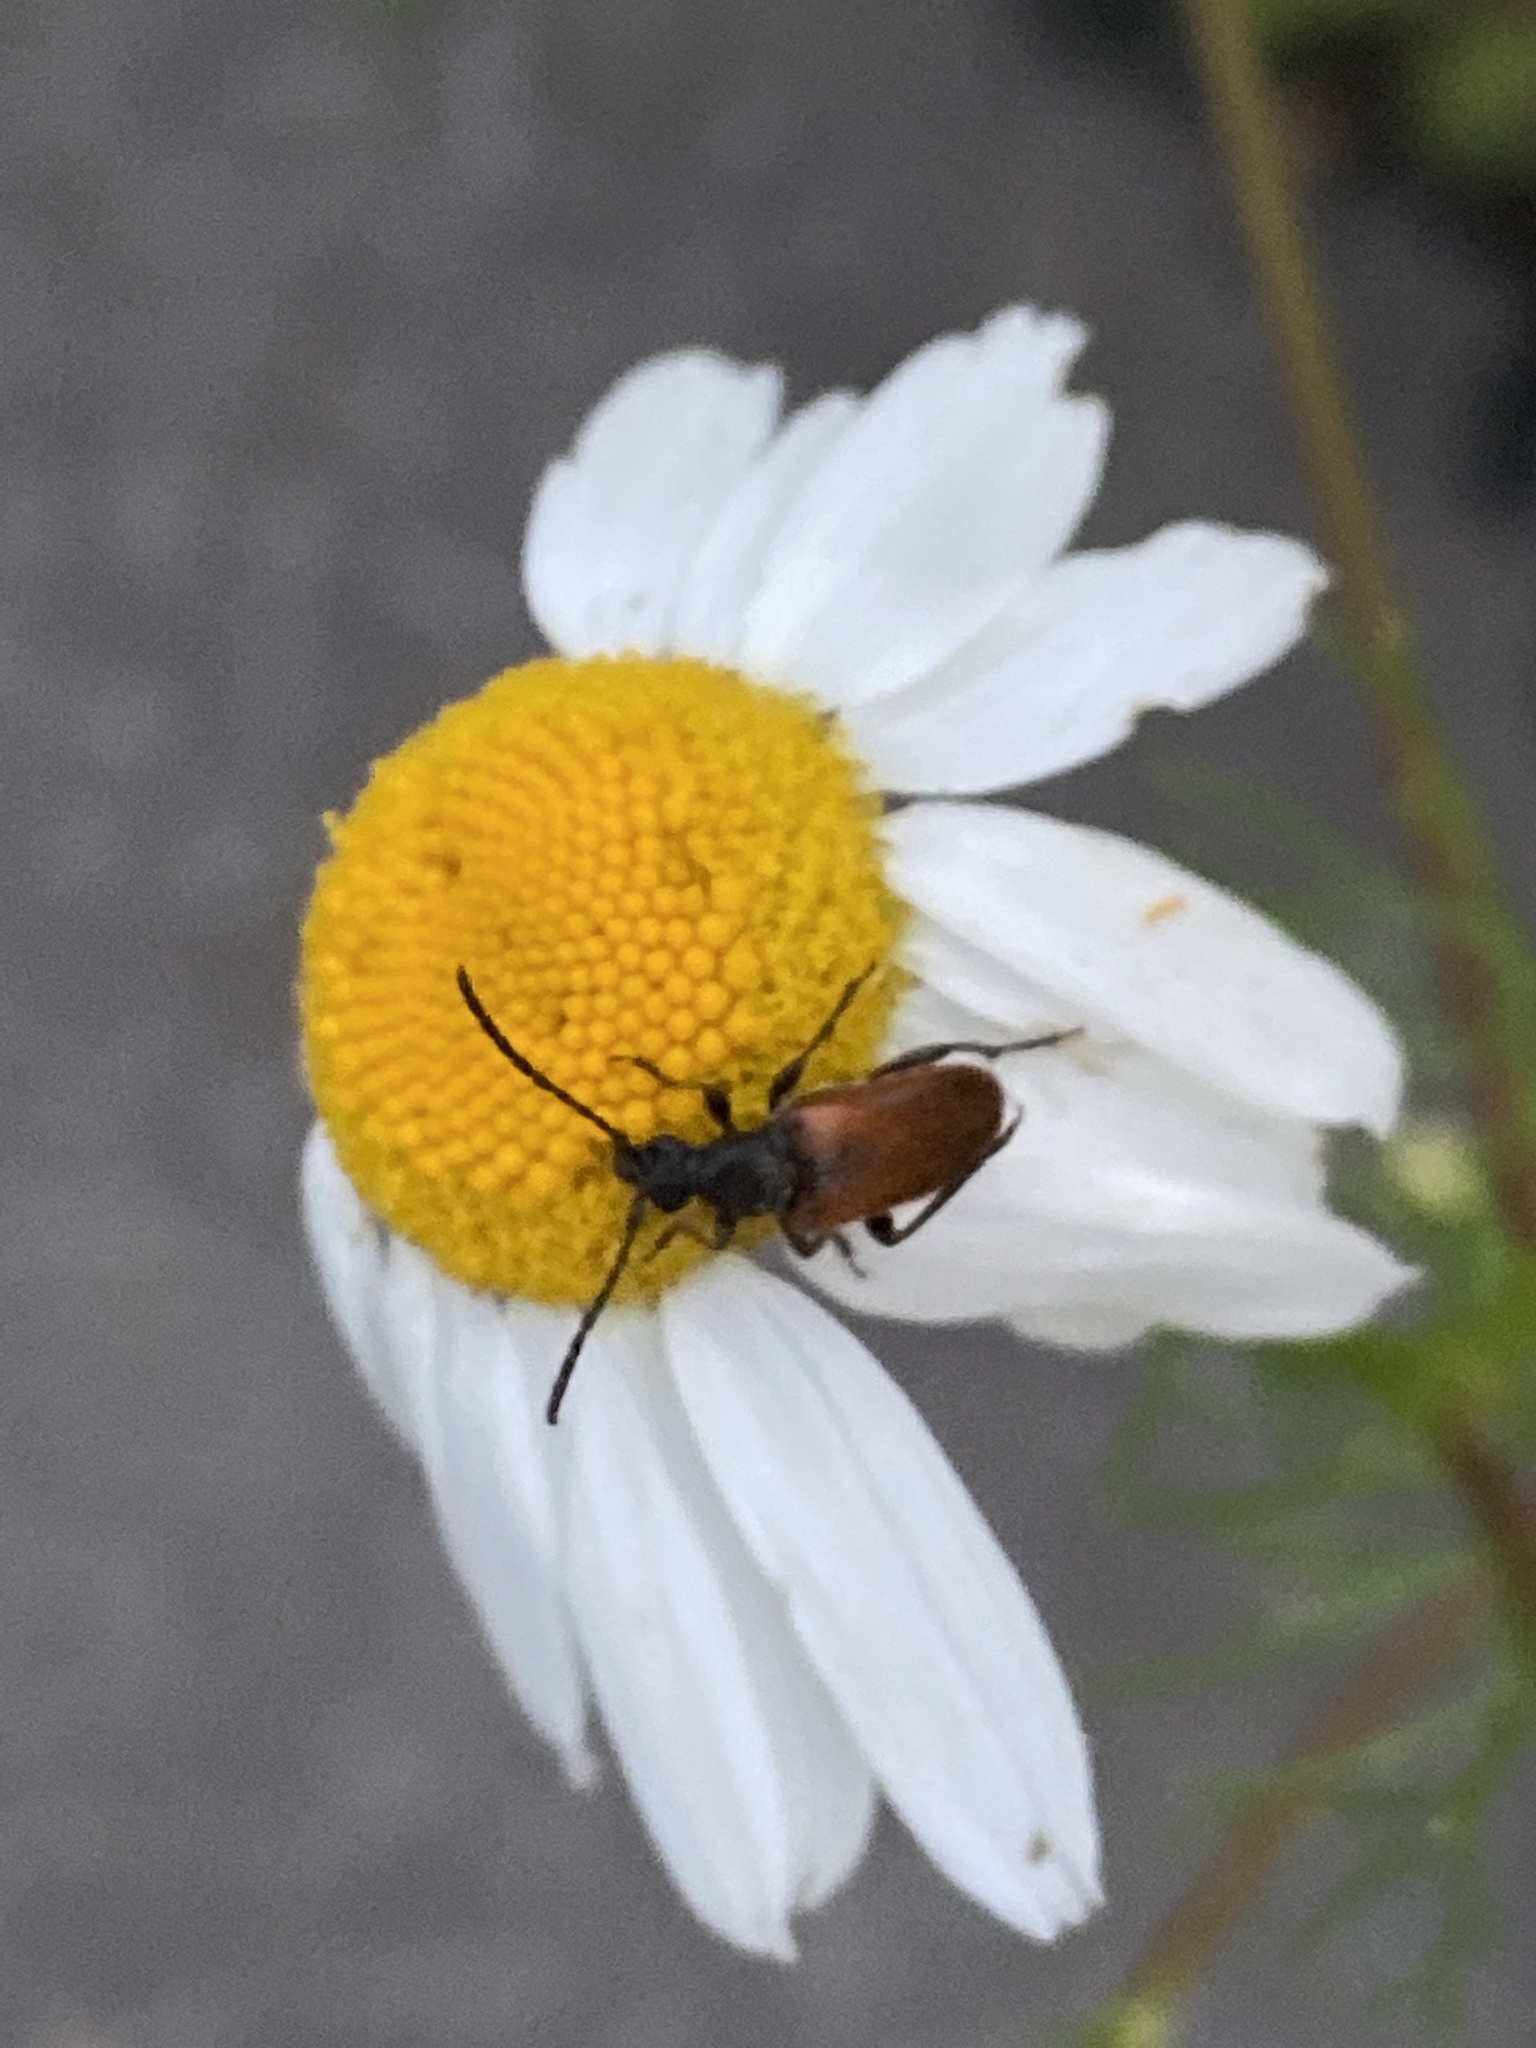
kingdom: Animalia
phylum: Arthropoda
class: Insecta
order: Coleoptera
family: Cerambycidae
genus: Pseudovadonia
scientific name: Pseudovadonia livida
